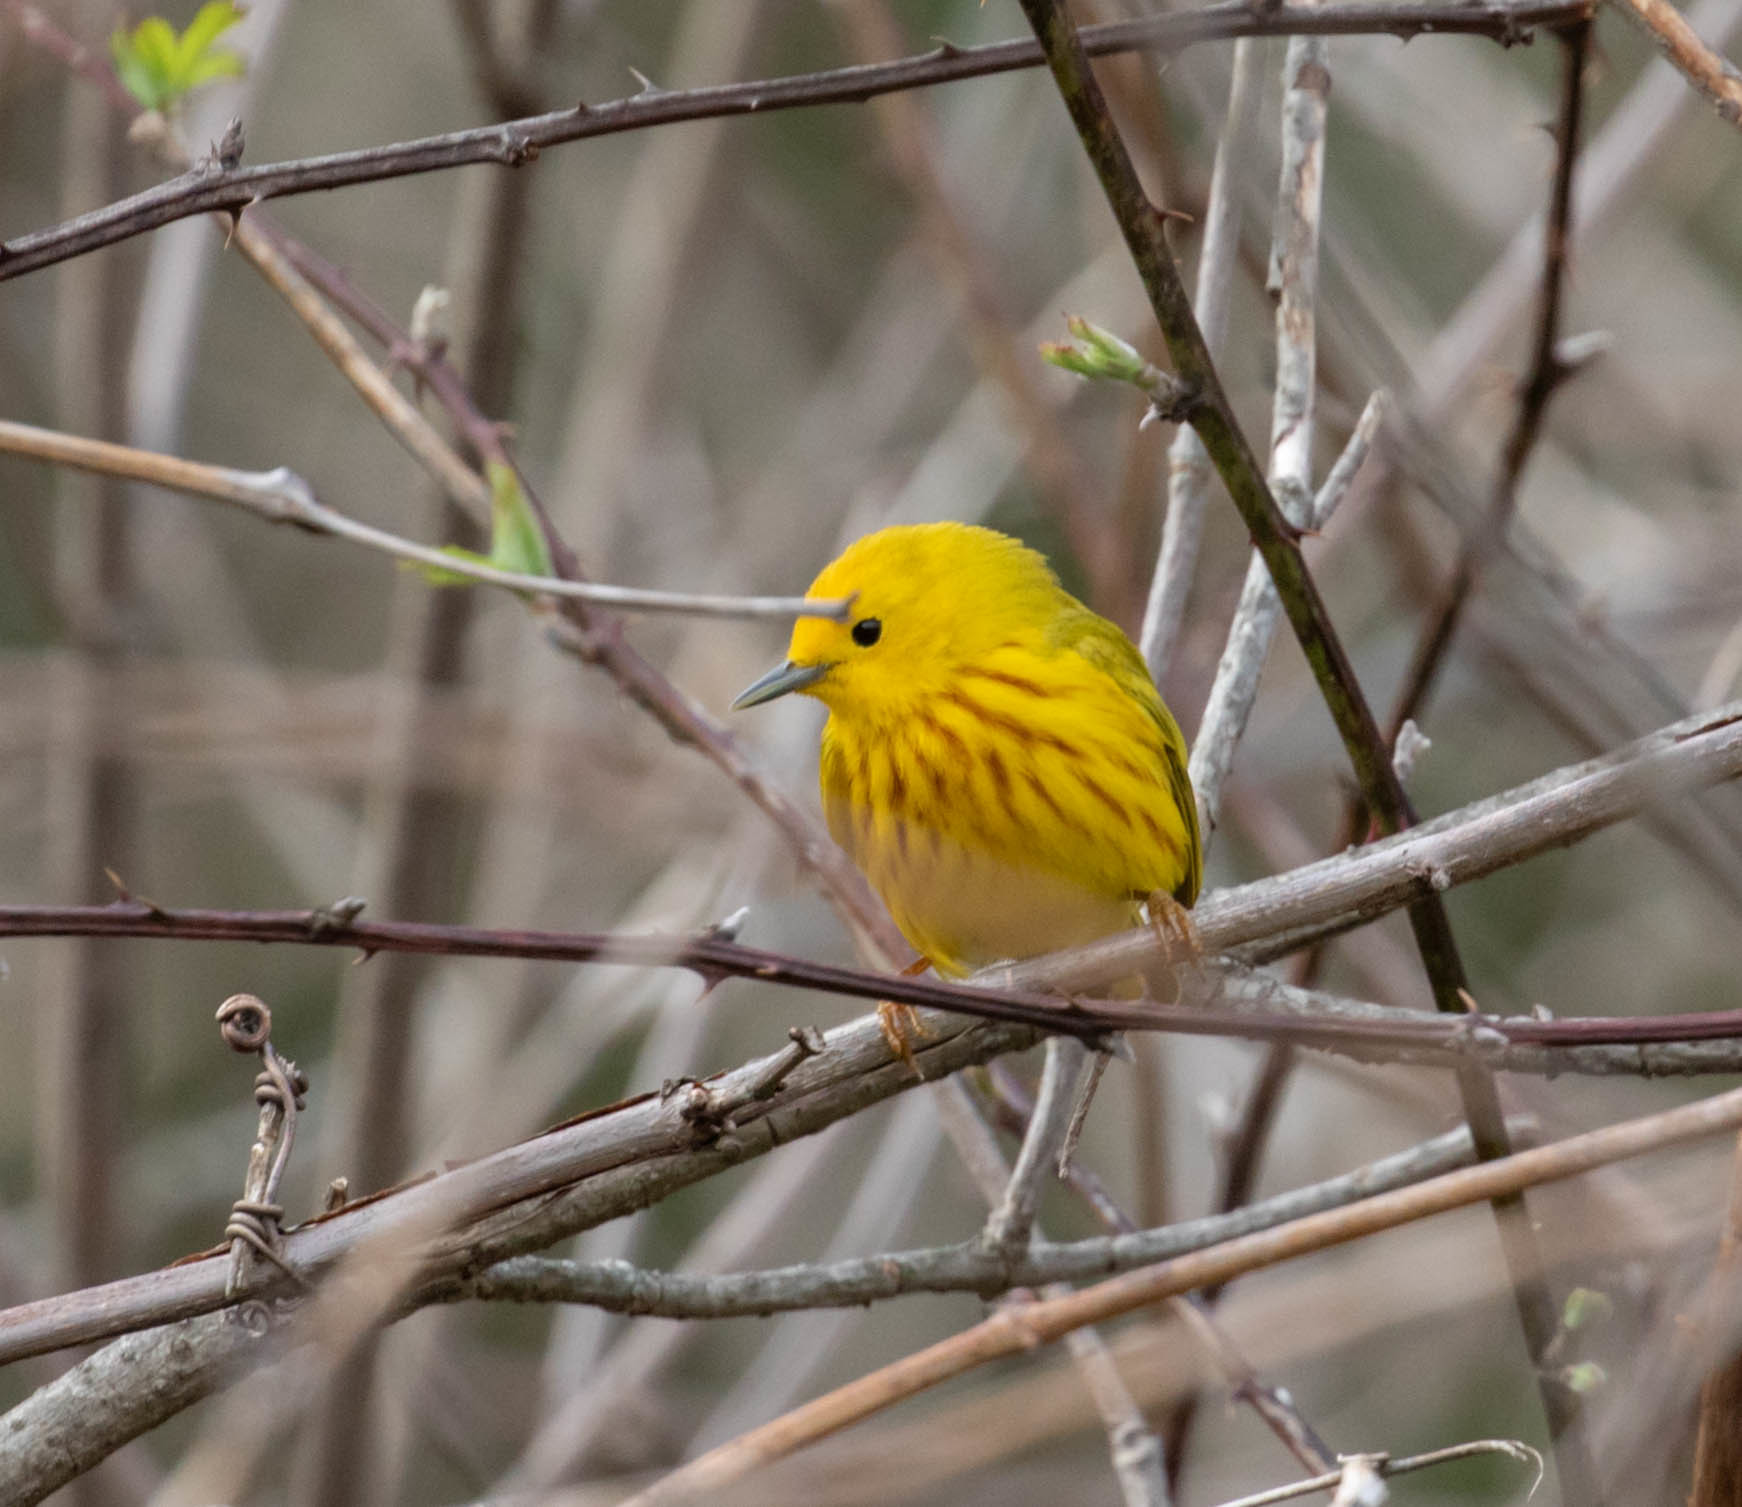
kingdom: Animalia
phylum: Chordata
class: Aves
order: Passeriformes
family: Parulidae
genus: Setophaga
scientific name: Setophaga petechia
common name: Yellow warbler
